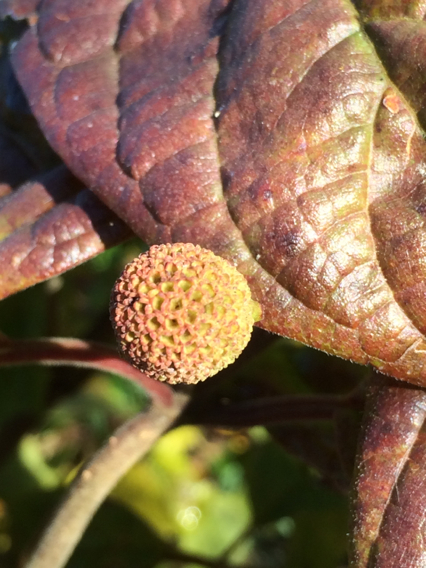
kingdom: Plantae
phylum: Tracheophyta
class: Magnoliopsida
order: Gentianales
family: Rubiaceae
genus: Cephalanthus
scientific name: Cephalanthus occidentalis
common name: Button-willow
